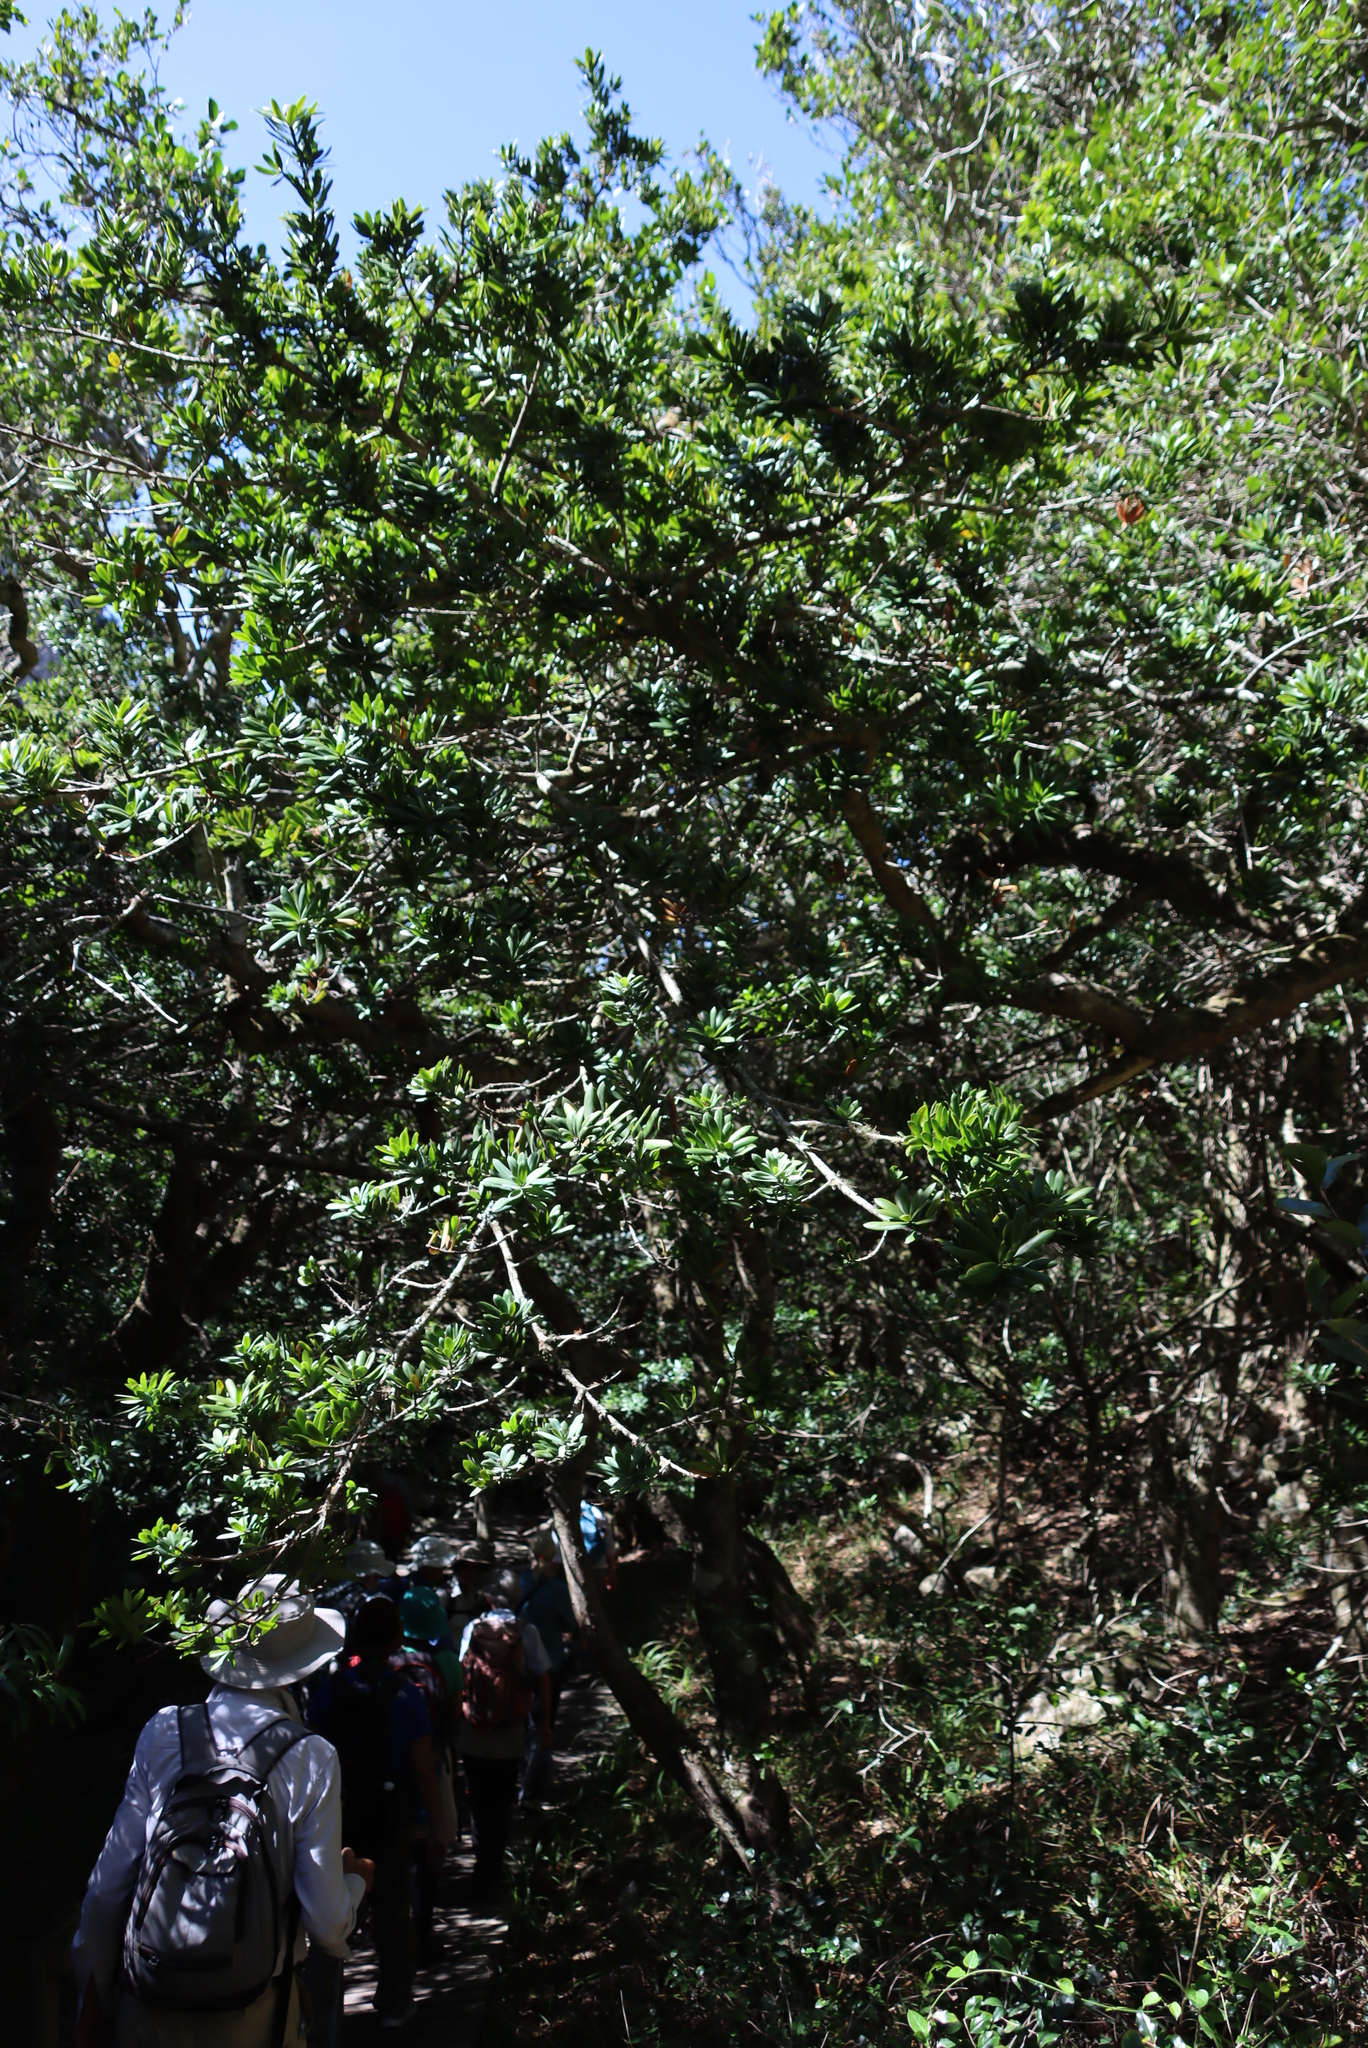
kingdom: Plantae
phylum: Tracheophyta
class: Pinopsida
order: Pinales
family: Podocarpaceae
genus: Podocarpus
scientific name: Podocarpus latifolius
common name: True yellowwood
